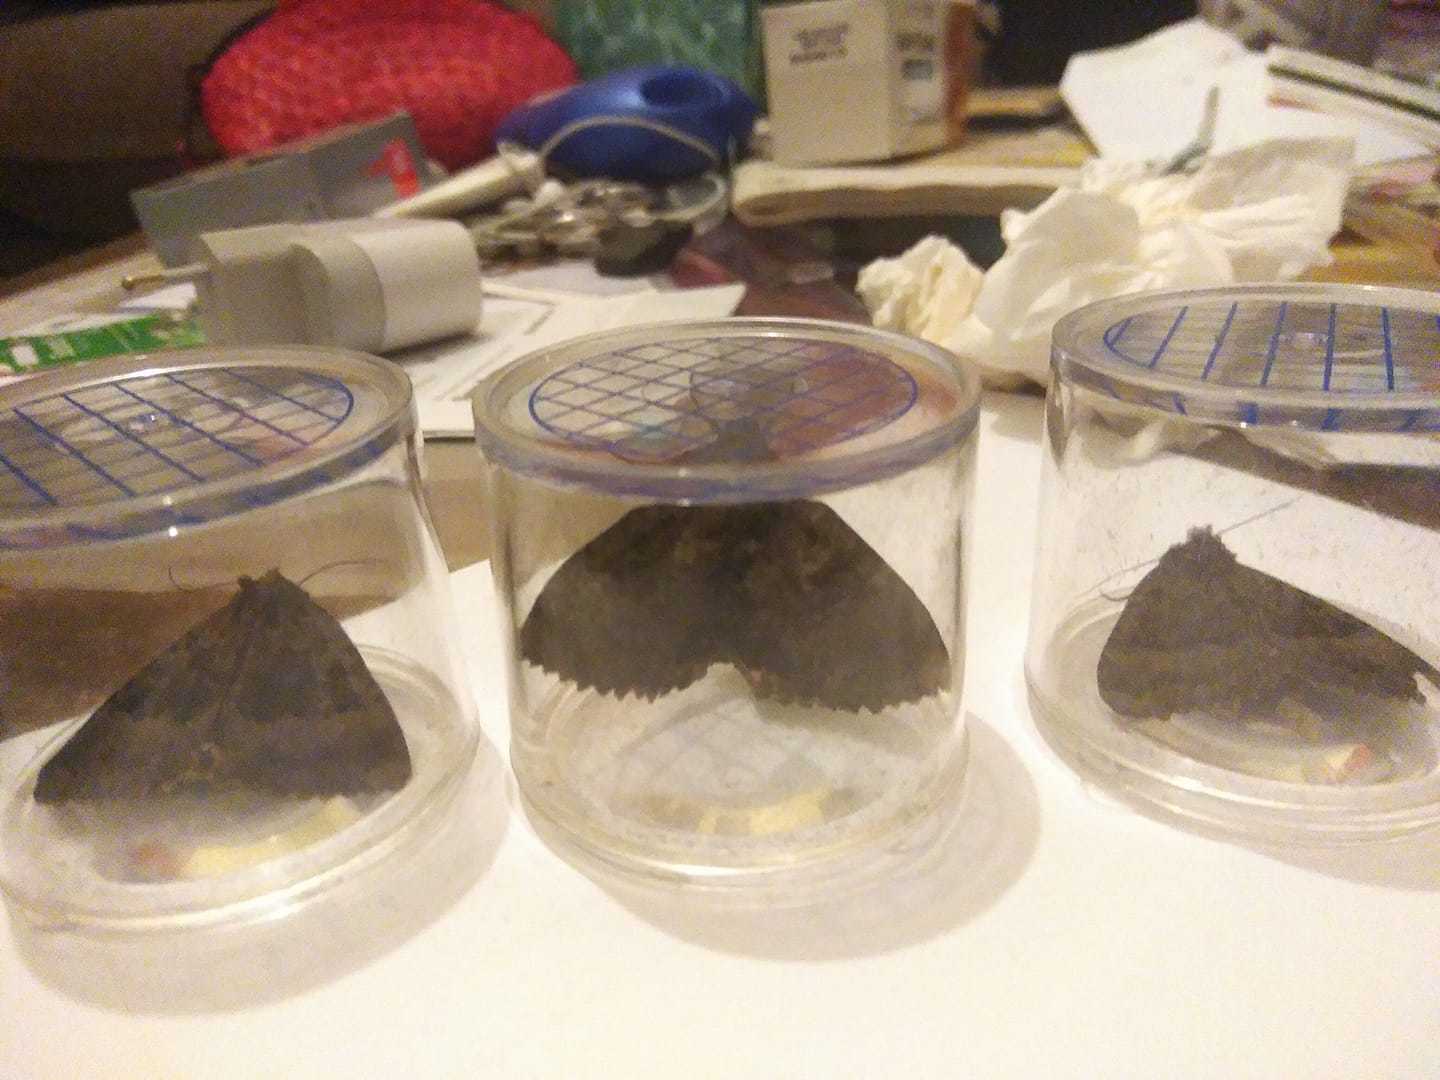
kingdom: Animalia
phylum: Arthropoda
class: Insecta
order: Lepidoptera
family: Noctuidae
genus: Mormo
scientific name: Mormo maura
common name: Old lady
